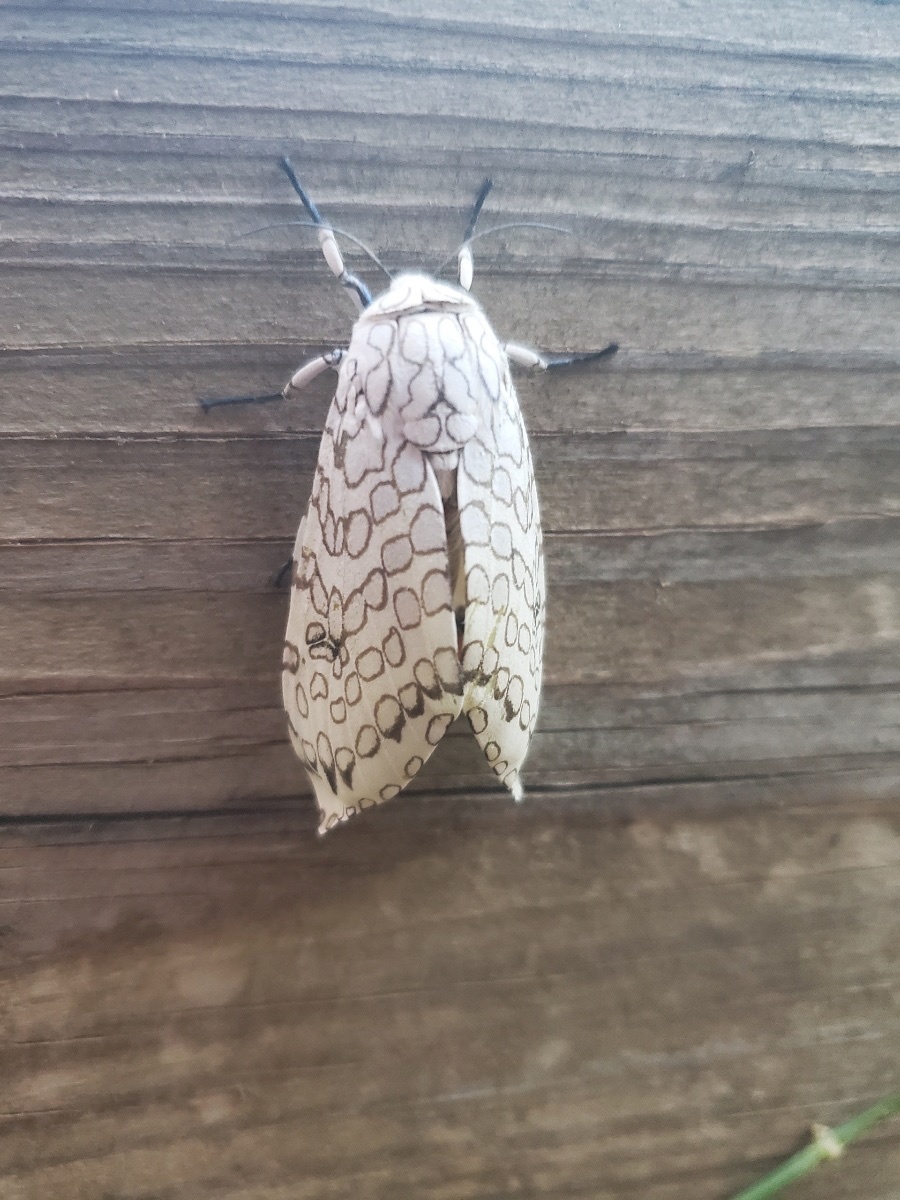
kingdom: Animalia
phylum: Arthropoda
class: Insecta
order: Lepidoptera
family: Erebidae
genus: Hypercompe
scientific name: Hypercompe scribonia
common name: Giant leopard moth
